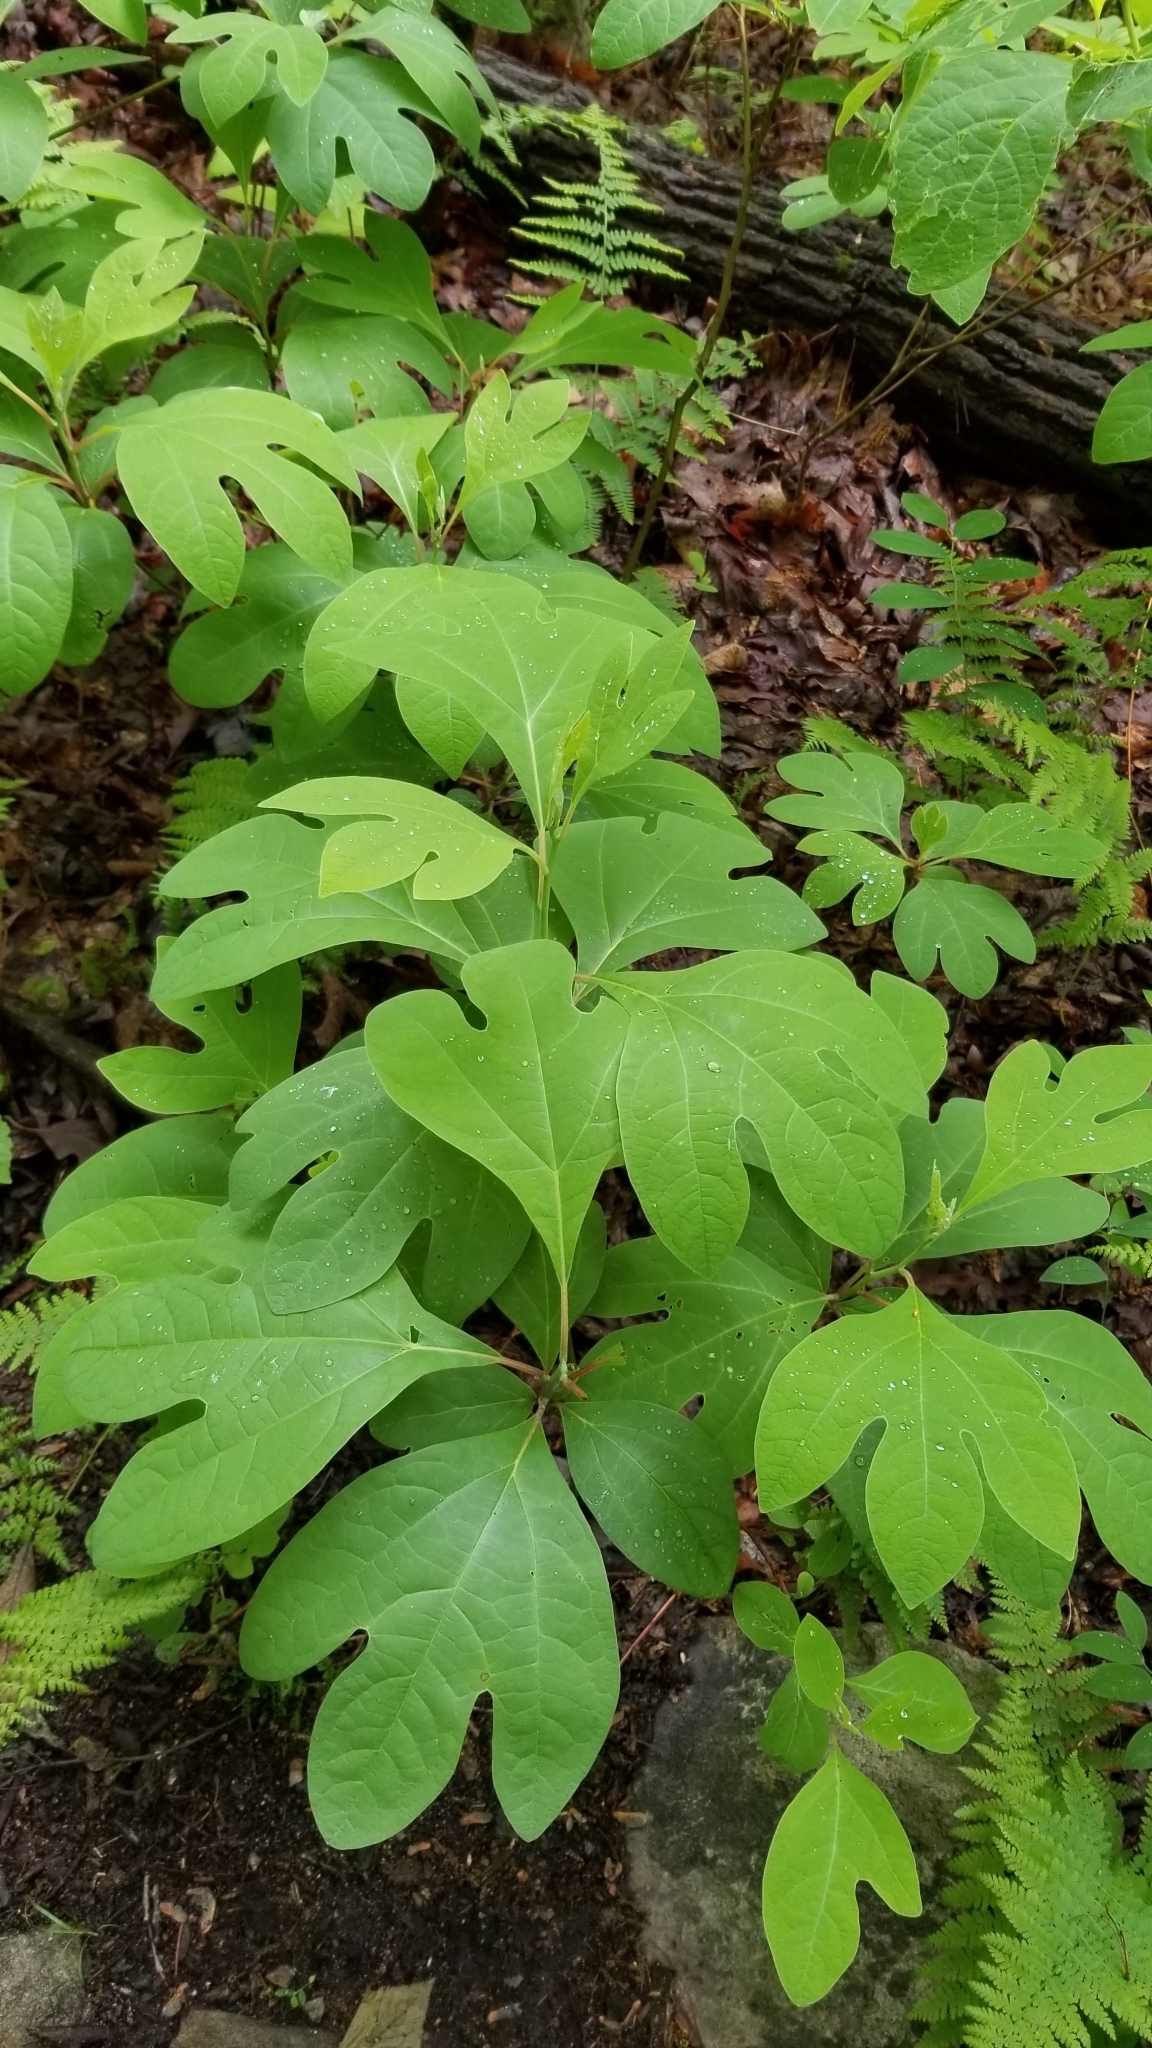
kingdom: Plantae
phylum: Tracheophyta
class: Magnoliopsida
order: Laurales
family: Lauraceae
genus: Sassafras
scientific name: Sassafras albidum
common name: Sassafras
